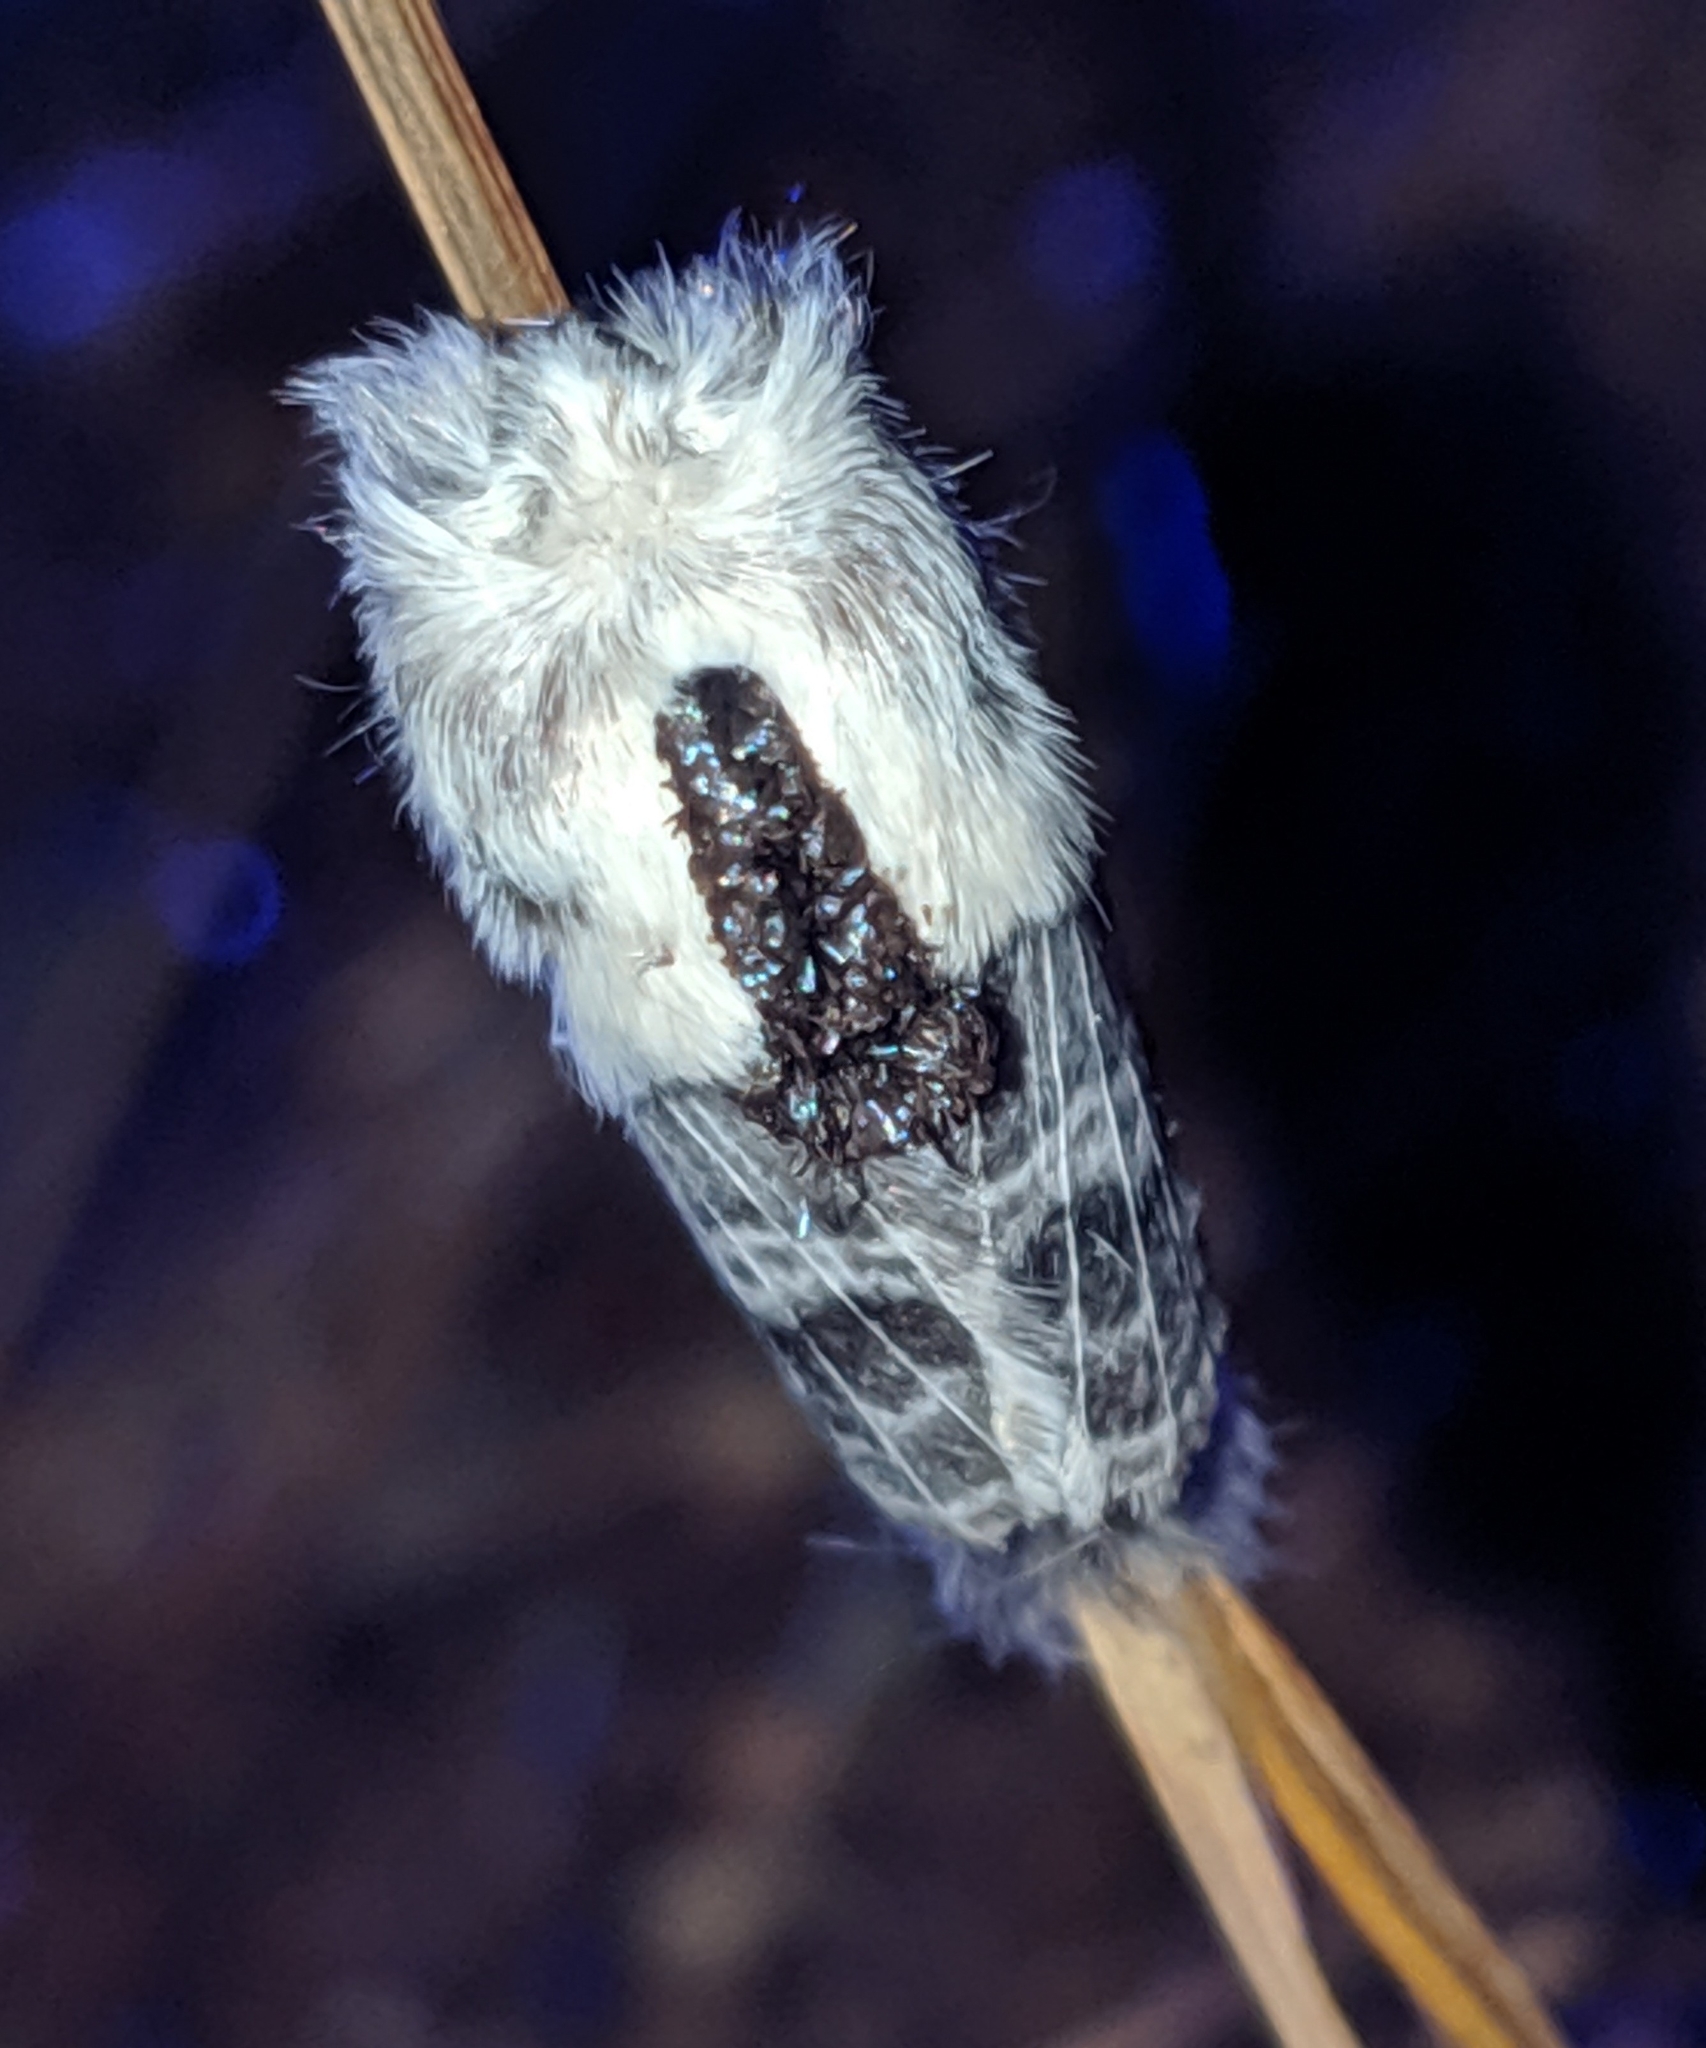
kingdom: Animalia
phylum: Arthropoda
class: Insecta
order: Lepidoptera
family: Lasiocampidae
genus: Tolype
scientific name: Tolype distincta
